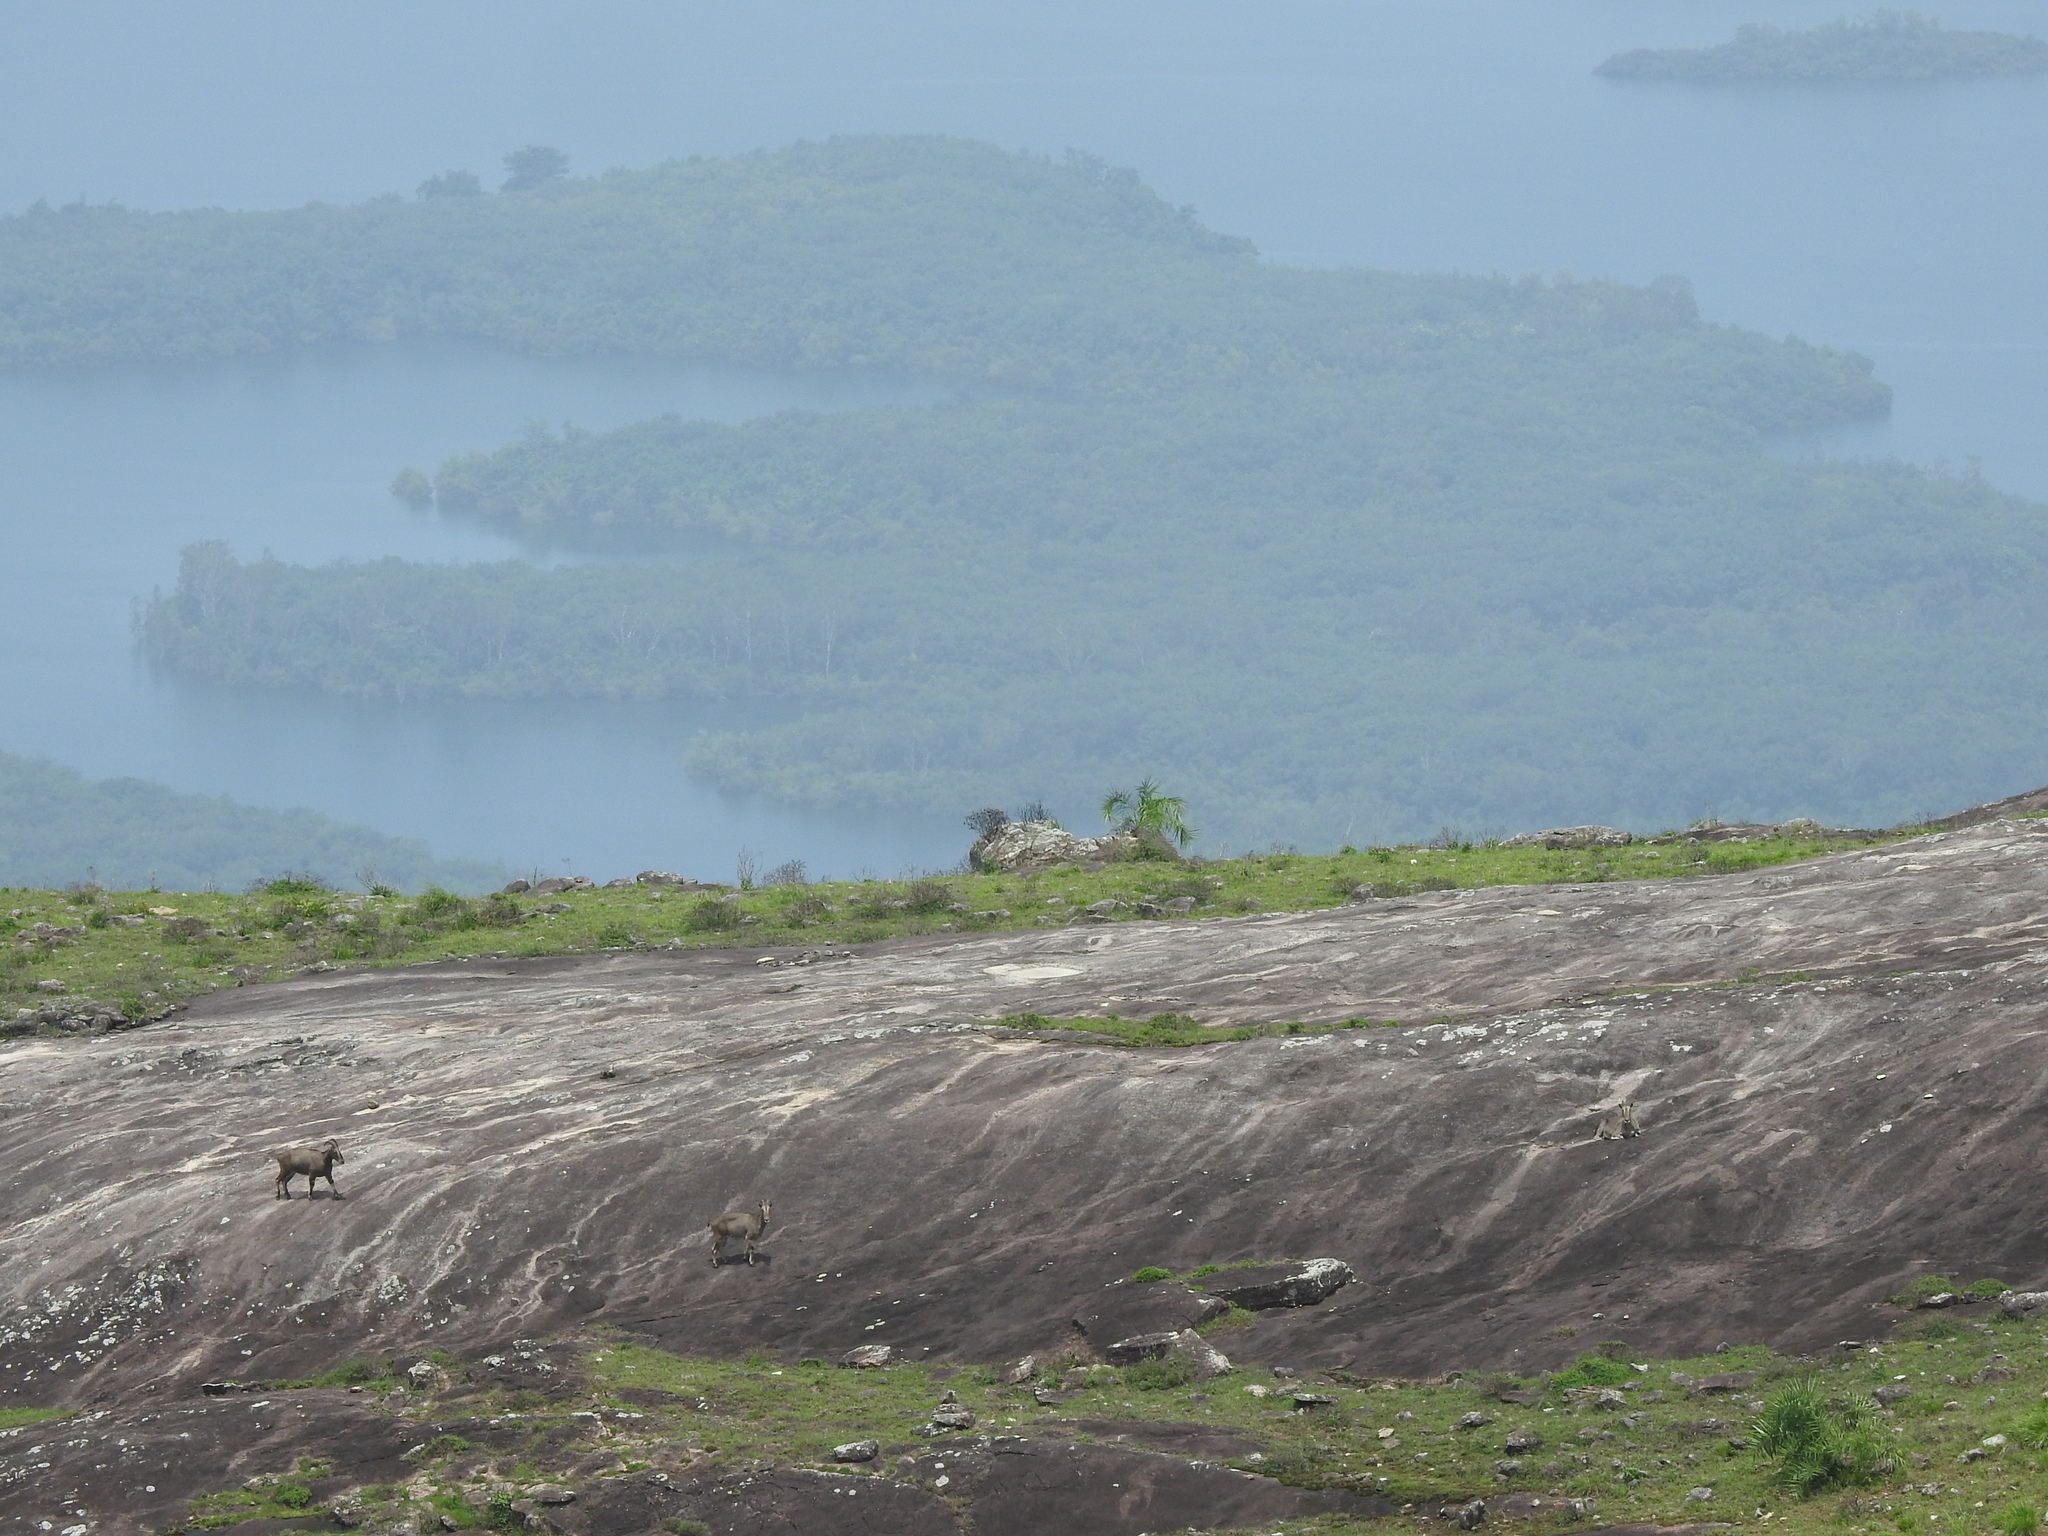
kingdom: Animalia
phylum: Chordata
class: Mammalia
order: Artiodactyla
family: Bovidae
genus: Hemitragus
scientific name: Hemitragus hylocrius
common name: Nilgiri tahr
